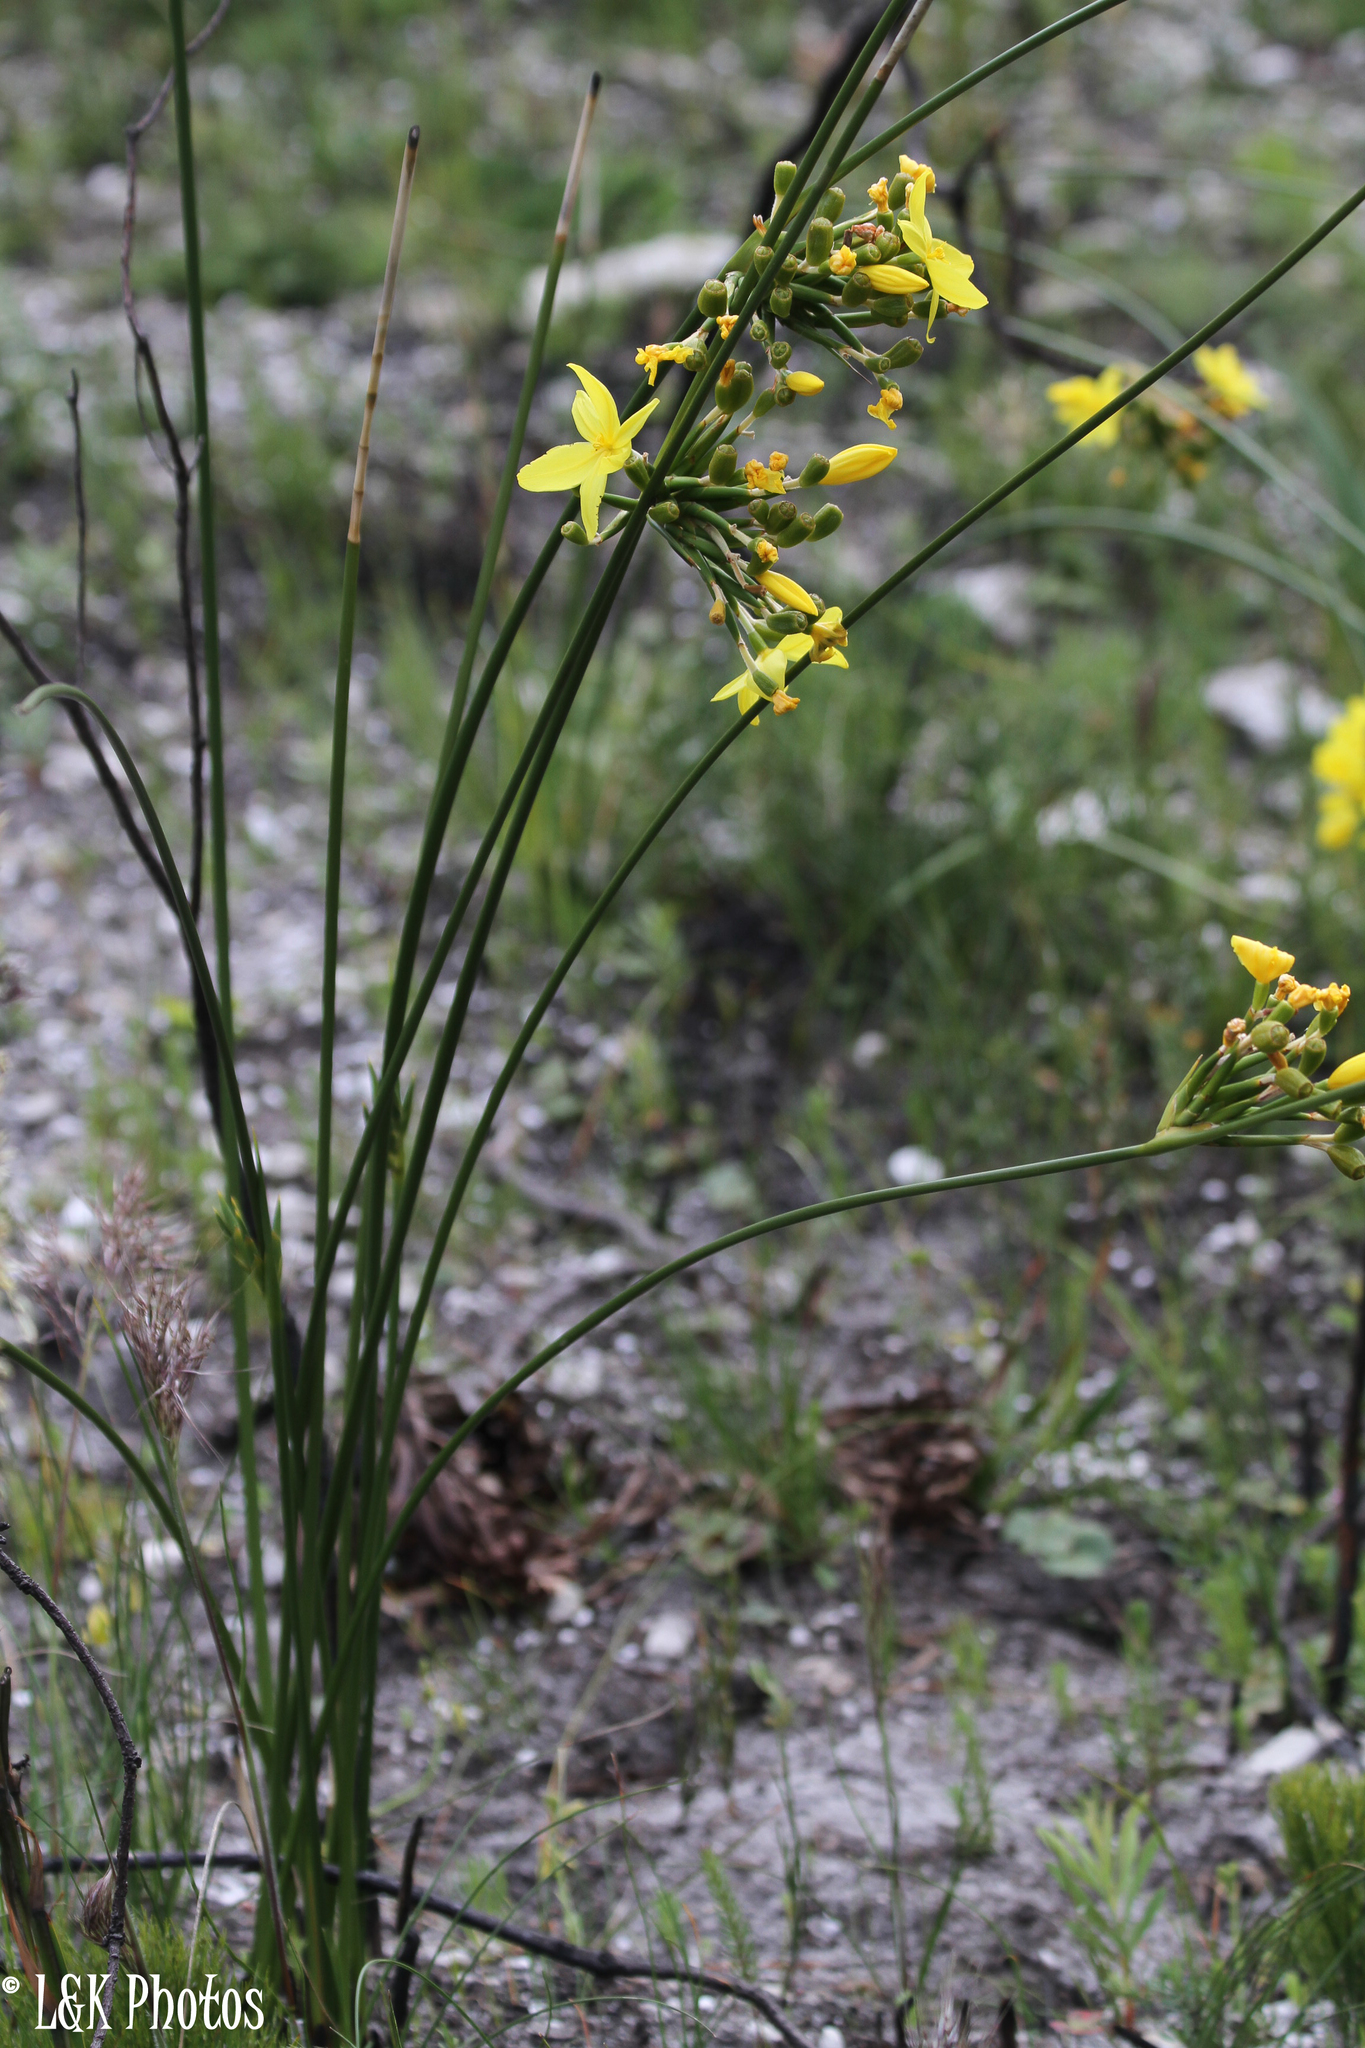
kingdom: Plantae
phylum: Tracheophyta
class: Liliopsida
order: Asparagales
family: Iridaceae
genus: Bobartia
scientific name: Bobartia indica
